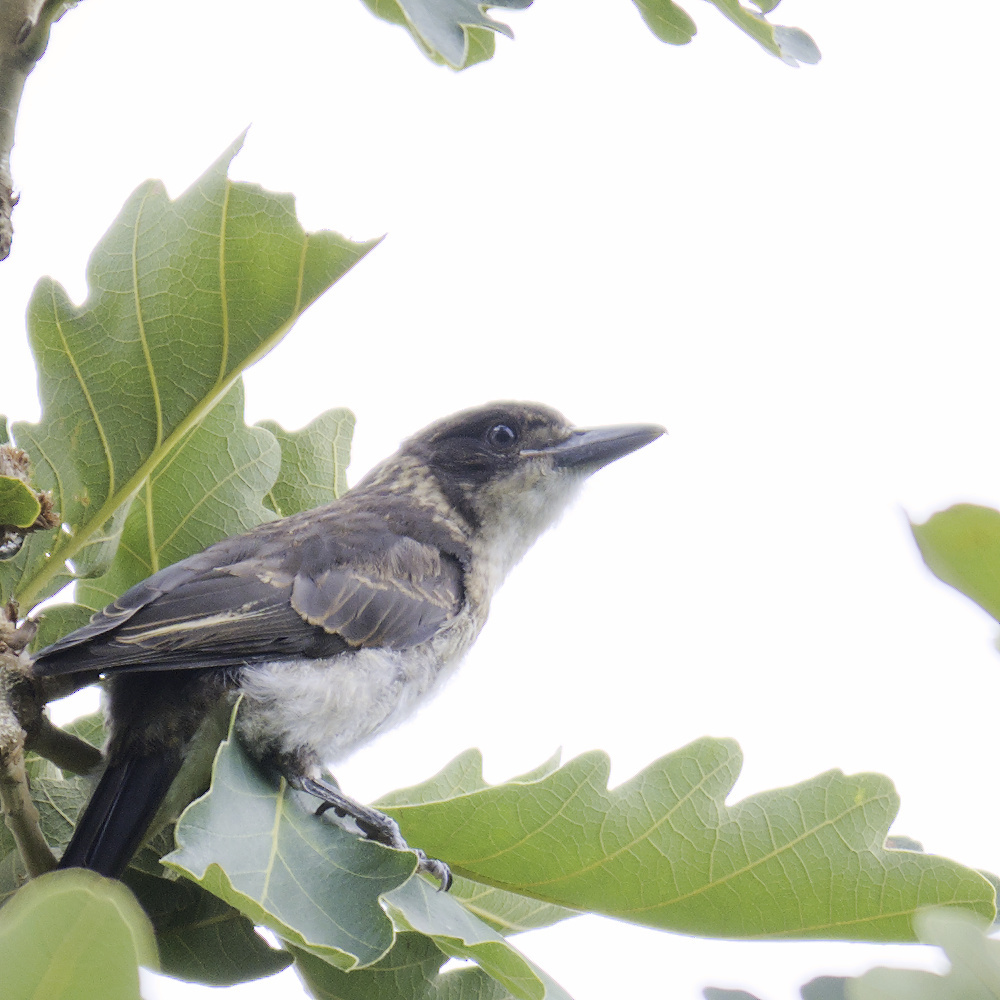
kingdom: Animalia
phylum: Chordata
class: Aves
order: Passeriformes
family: Cracticidae
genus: Cracticus
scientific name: Cracticus torquatus
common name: Grey butcherbird
